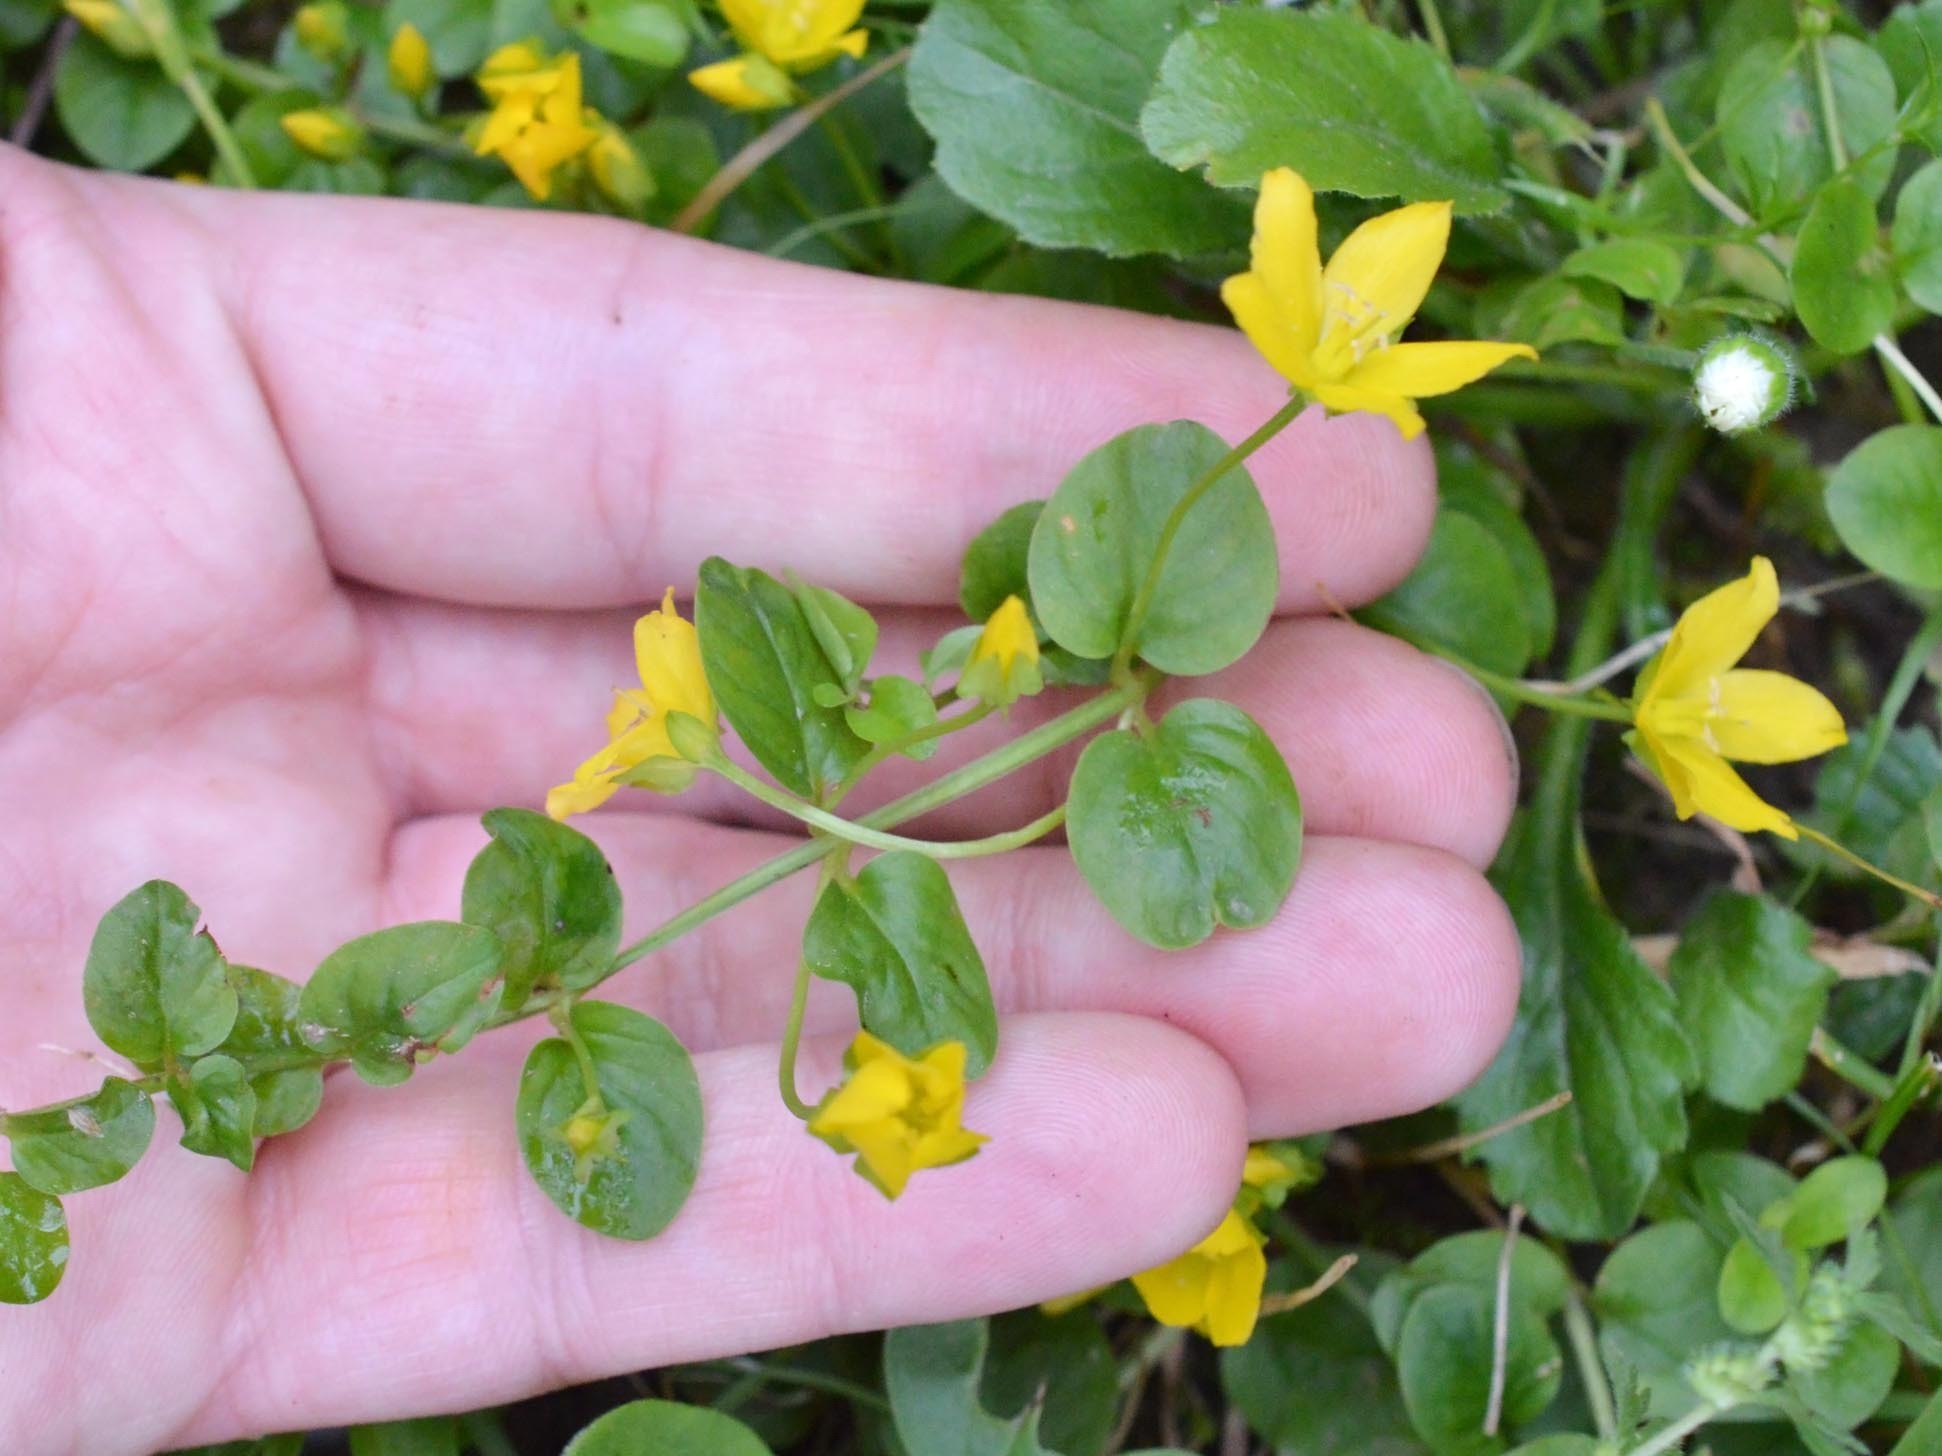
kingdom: Plantae
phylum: Tracheophyta
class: Magnoliopsida
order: Ericales
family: Primulaceae
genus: Lysimachia
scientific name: Lysimachia nummularia
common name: Moneywort
